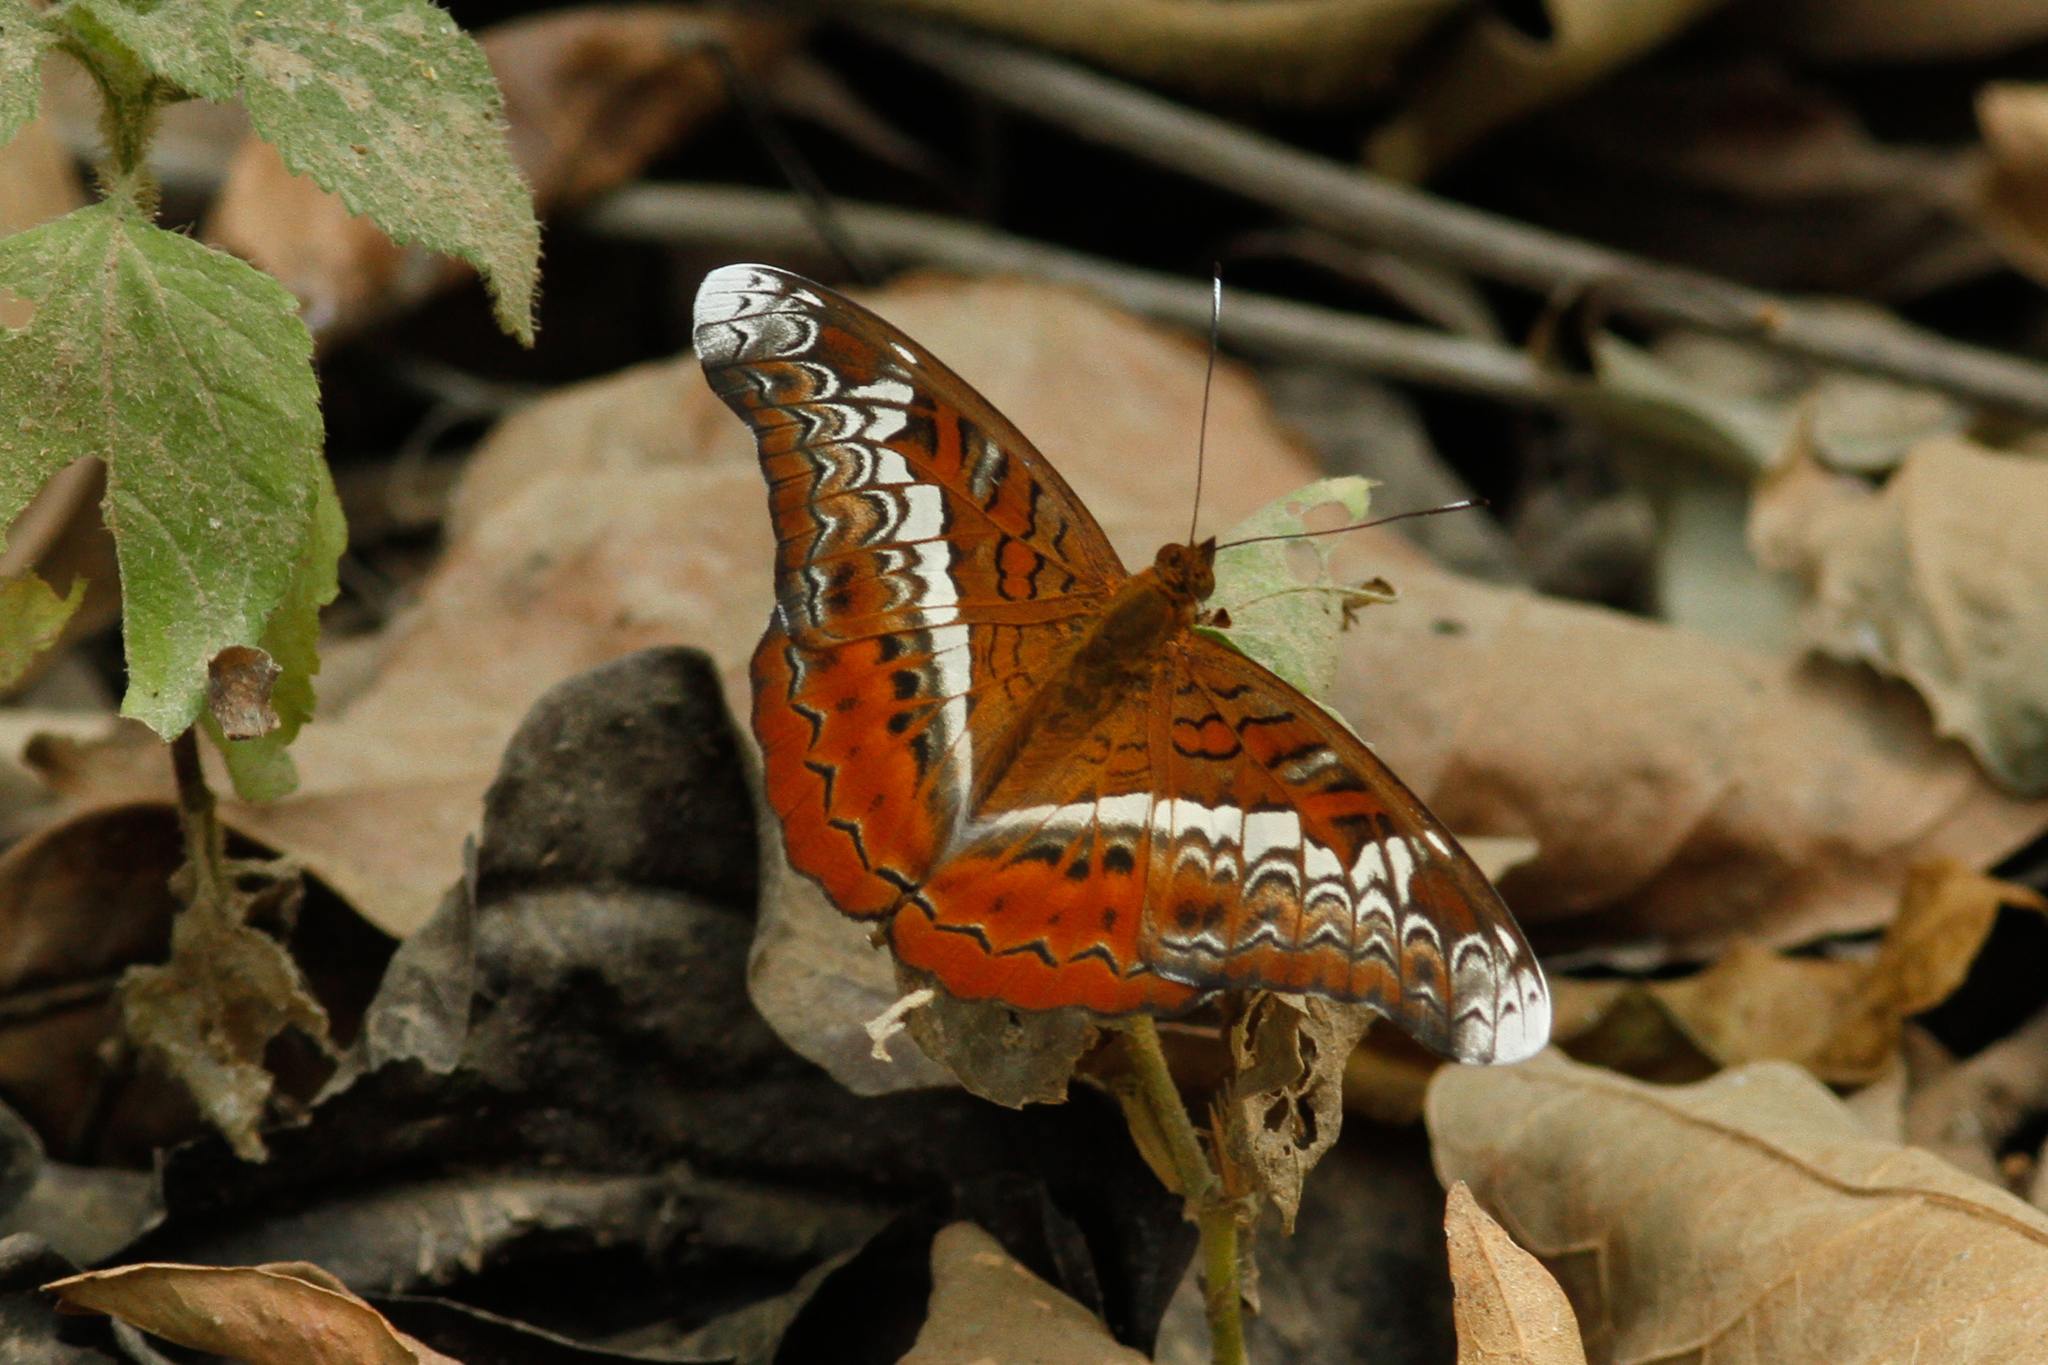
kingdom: Animalia
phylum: Arthropoda
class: Insecta
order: Lepidoptera
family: Nymphalidae
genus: Lebadea
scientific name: Lebadea martha
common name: Knight
